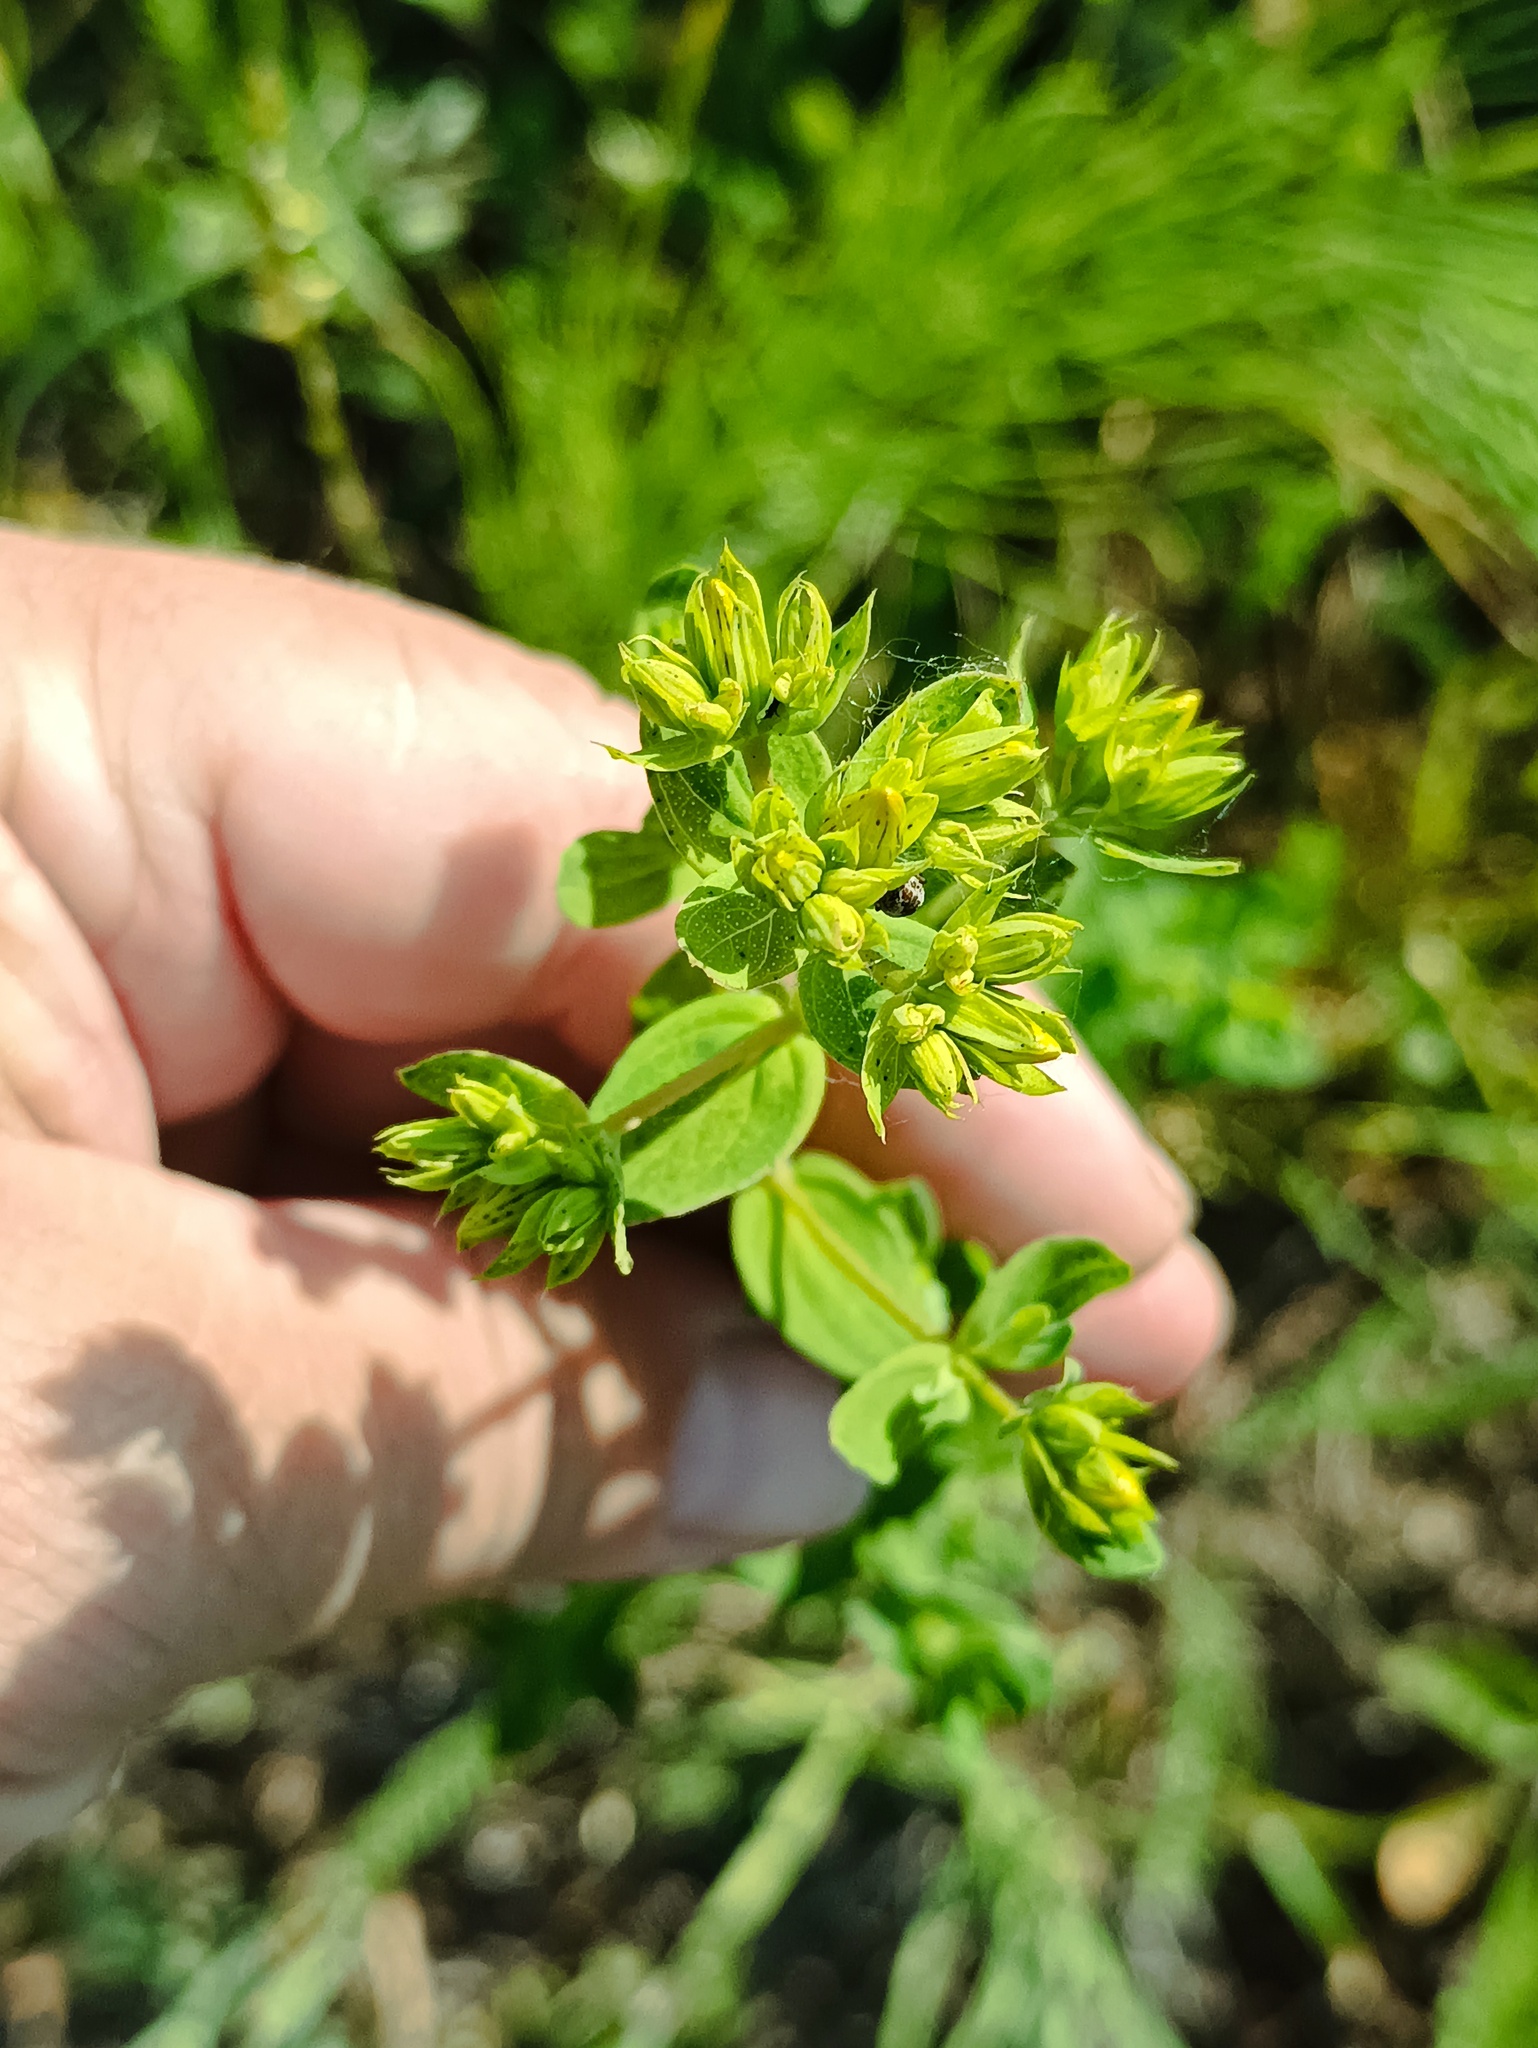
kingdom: Plantae
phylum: Tracheophyta
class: Magnoliopsida
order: Malpighiales
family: Hypericaceae
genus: Hypericum
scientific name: Hypericum perforatum
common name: Common st. johnswort
